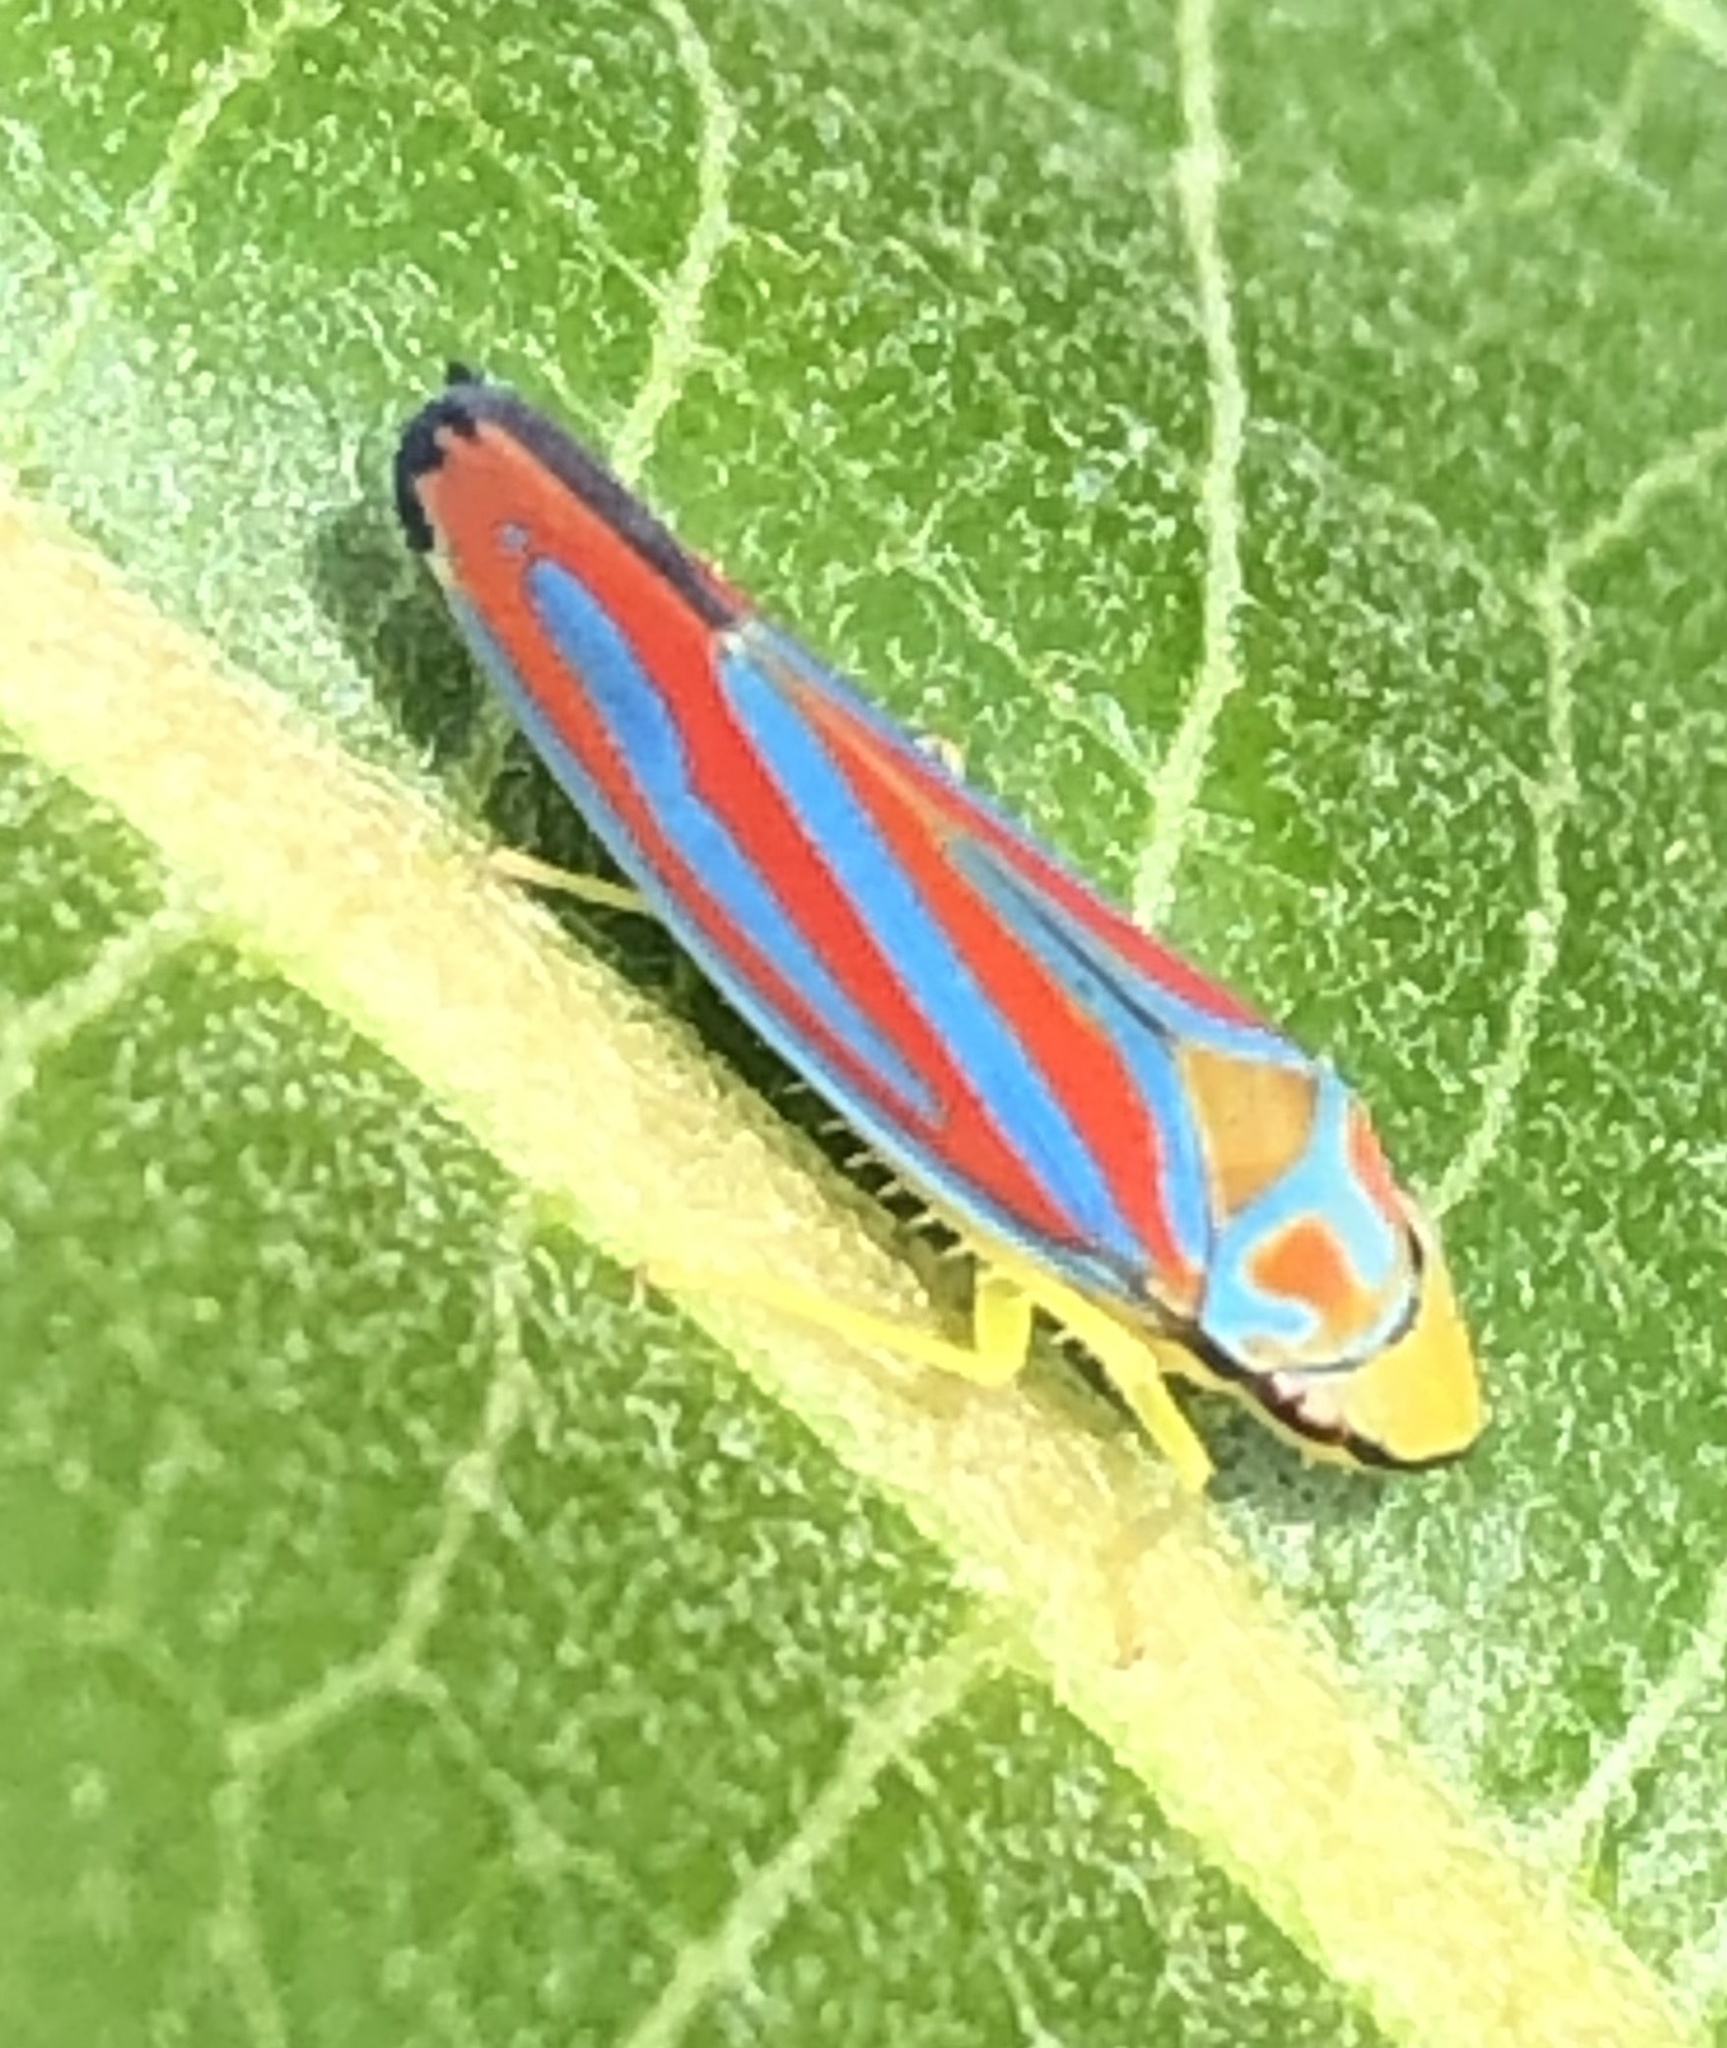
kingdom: Animalia
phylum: Arthropoda
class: Insecta
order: Hemiptera
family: Cicadellidae
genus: Graphocephala
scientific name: Graphocephala coccinea
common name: Candy-striped leafhopper
